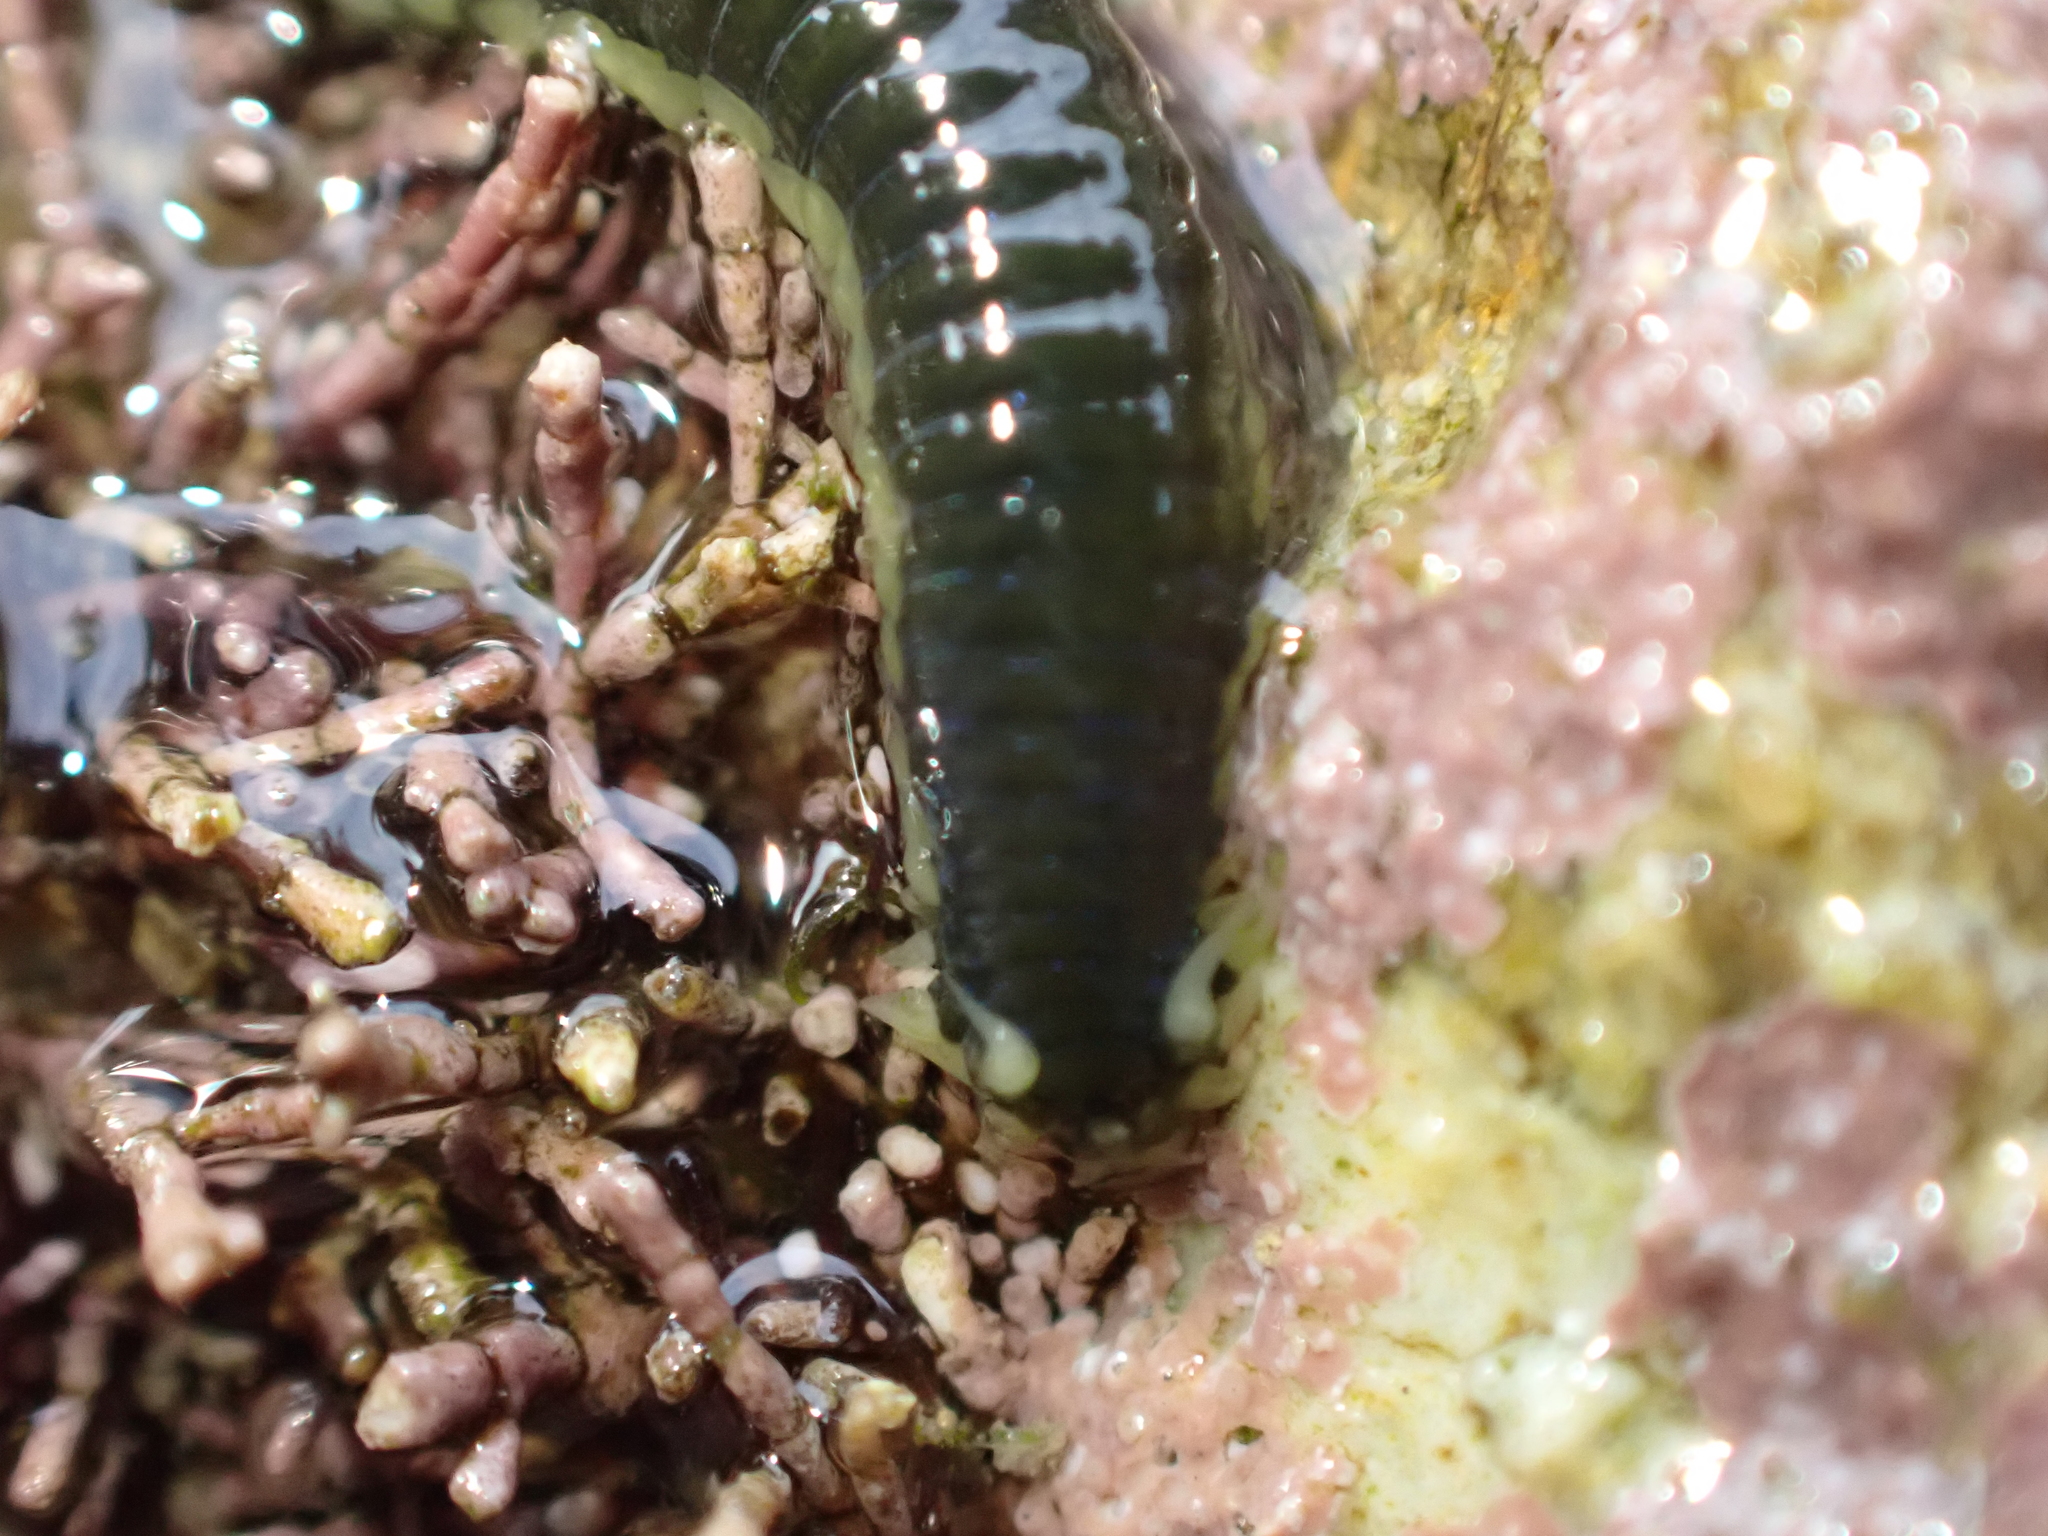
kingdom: Animalia
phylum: Annelida
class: Polychaeta
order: Phyllodocida
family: Phyllodocidae
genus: Eulalia
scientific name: Eulalia microphylla
